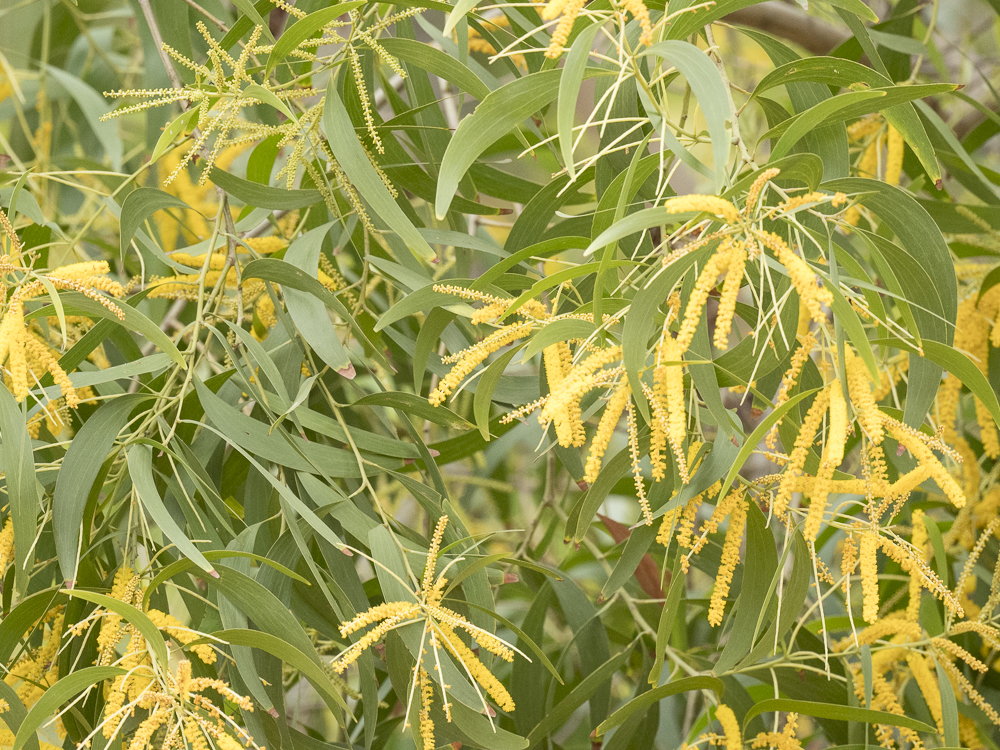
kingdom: Plantae
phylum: Tracheophyta
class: Magnoliopsida
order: Fabales
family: Fabaceae
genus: Acacia
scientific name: Acacia auriculiformis
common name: Earleaf acacia
